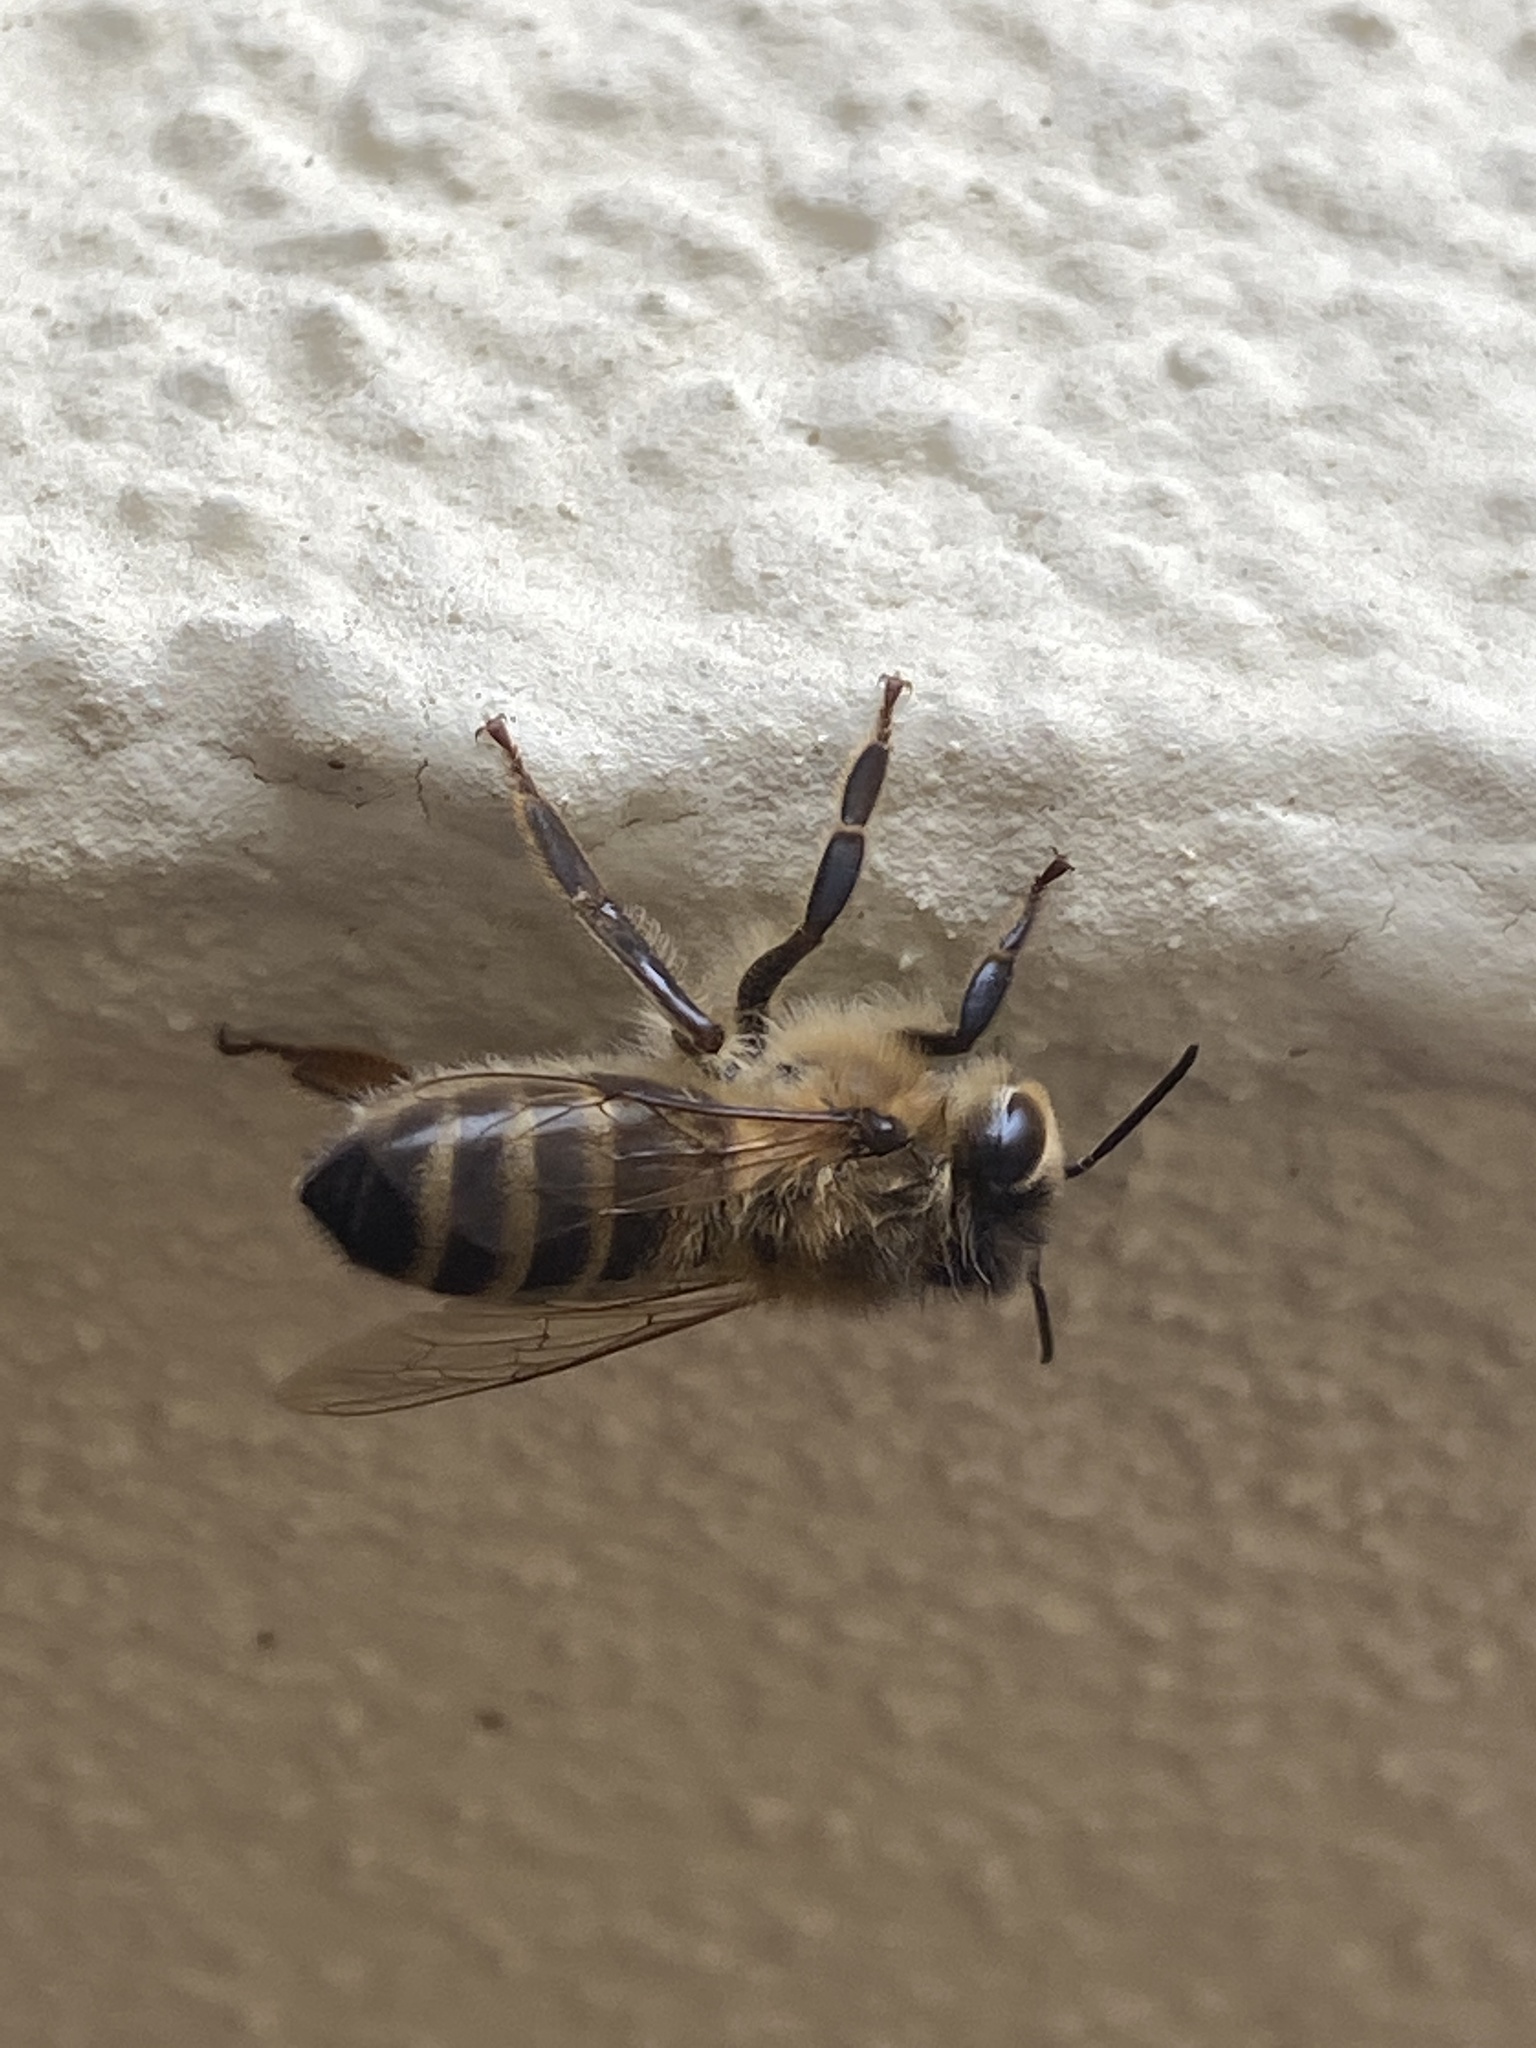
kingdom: Animalia
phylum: Arthropoda
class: Insecta
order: Hymenoptera
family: Apidae
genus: Apis
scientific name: Apis mellifera
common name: Honey bee
